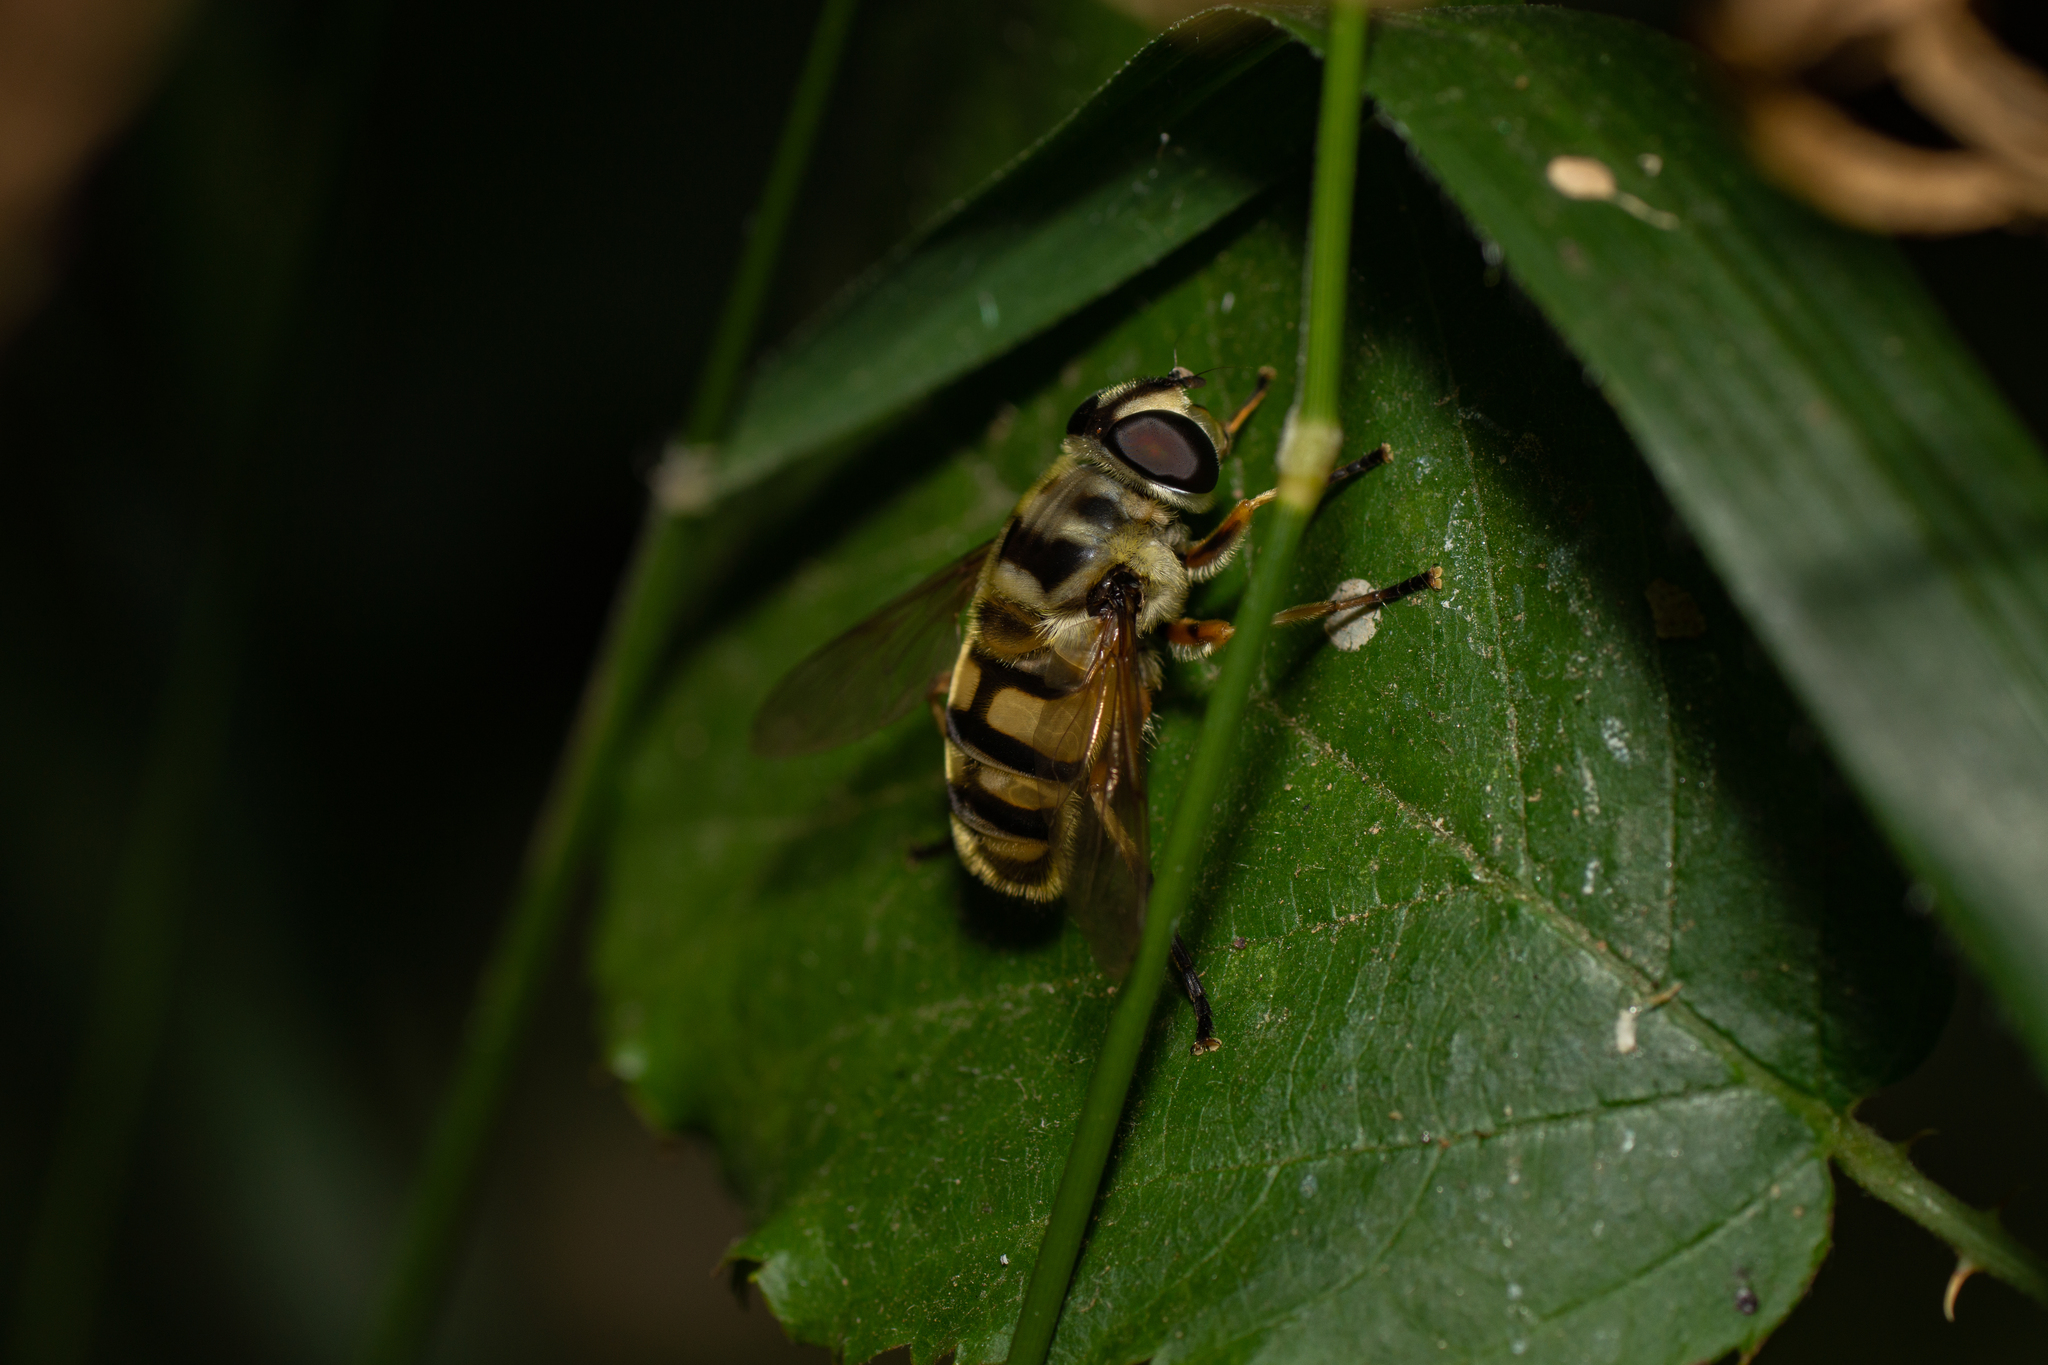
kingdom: Animalia
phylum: Arthropoda
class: Insecta
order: Diptera
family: Syrphidae
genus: Myathropa
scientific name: Myathropa florea
